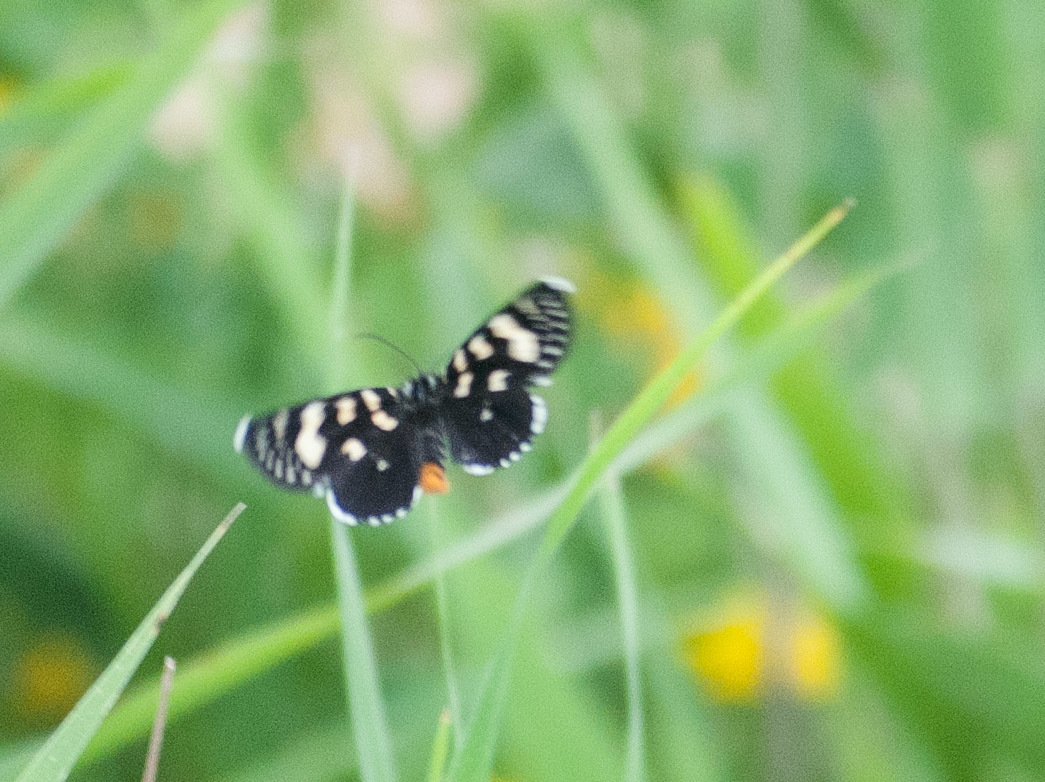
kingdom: Animalia
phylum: Arthropoda
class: Insecta
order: Lepidoptera
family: Noctuidae
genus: Phalaenoides
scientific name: Phalaenoides glycinae
